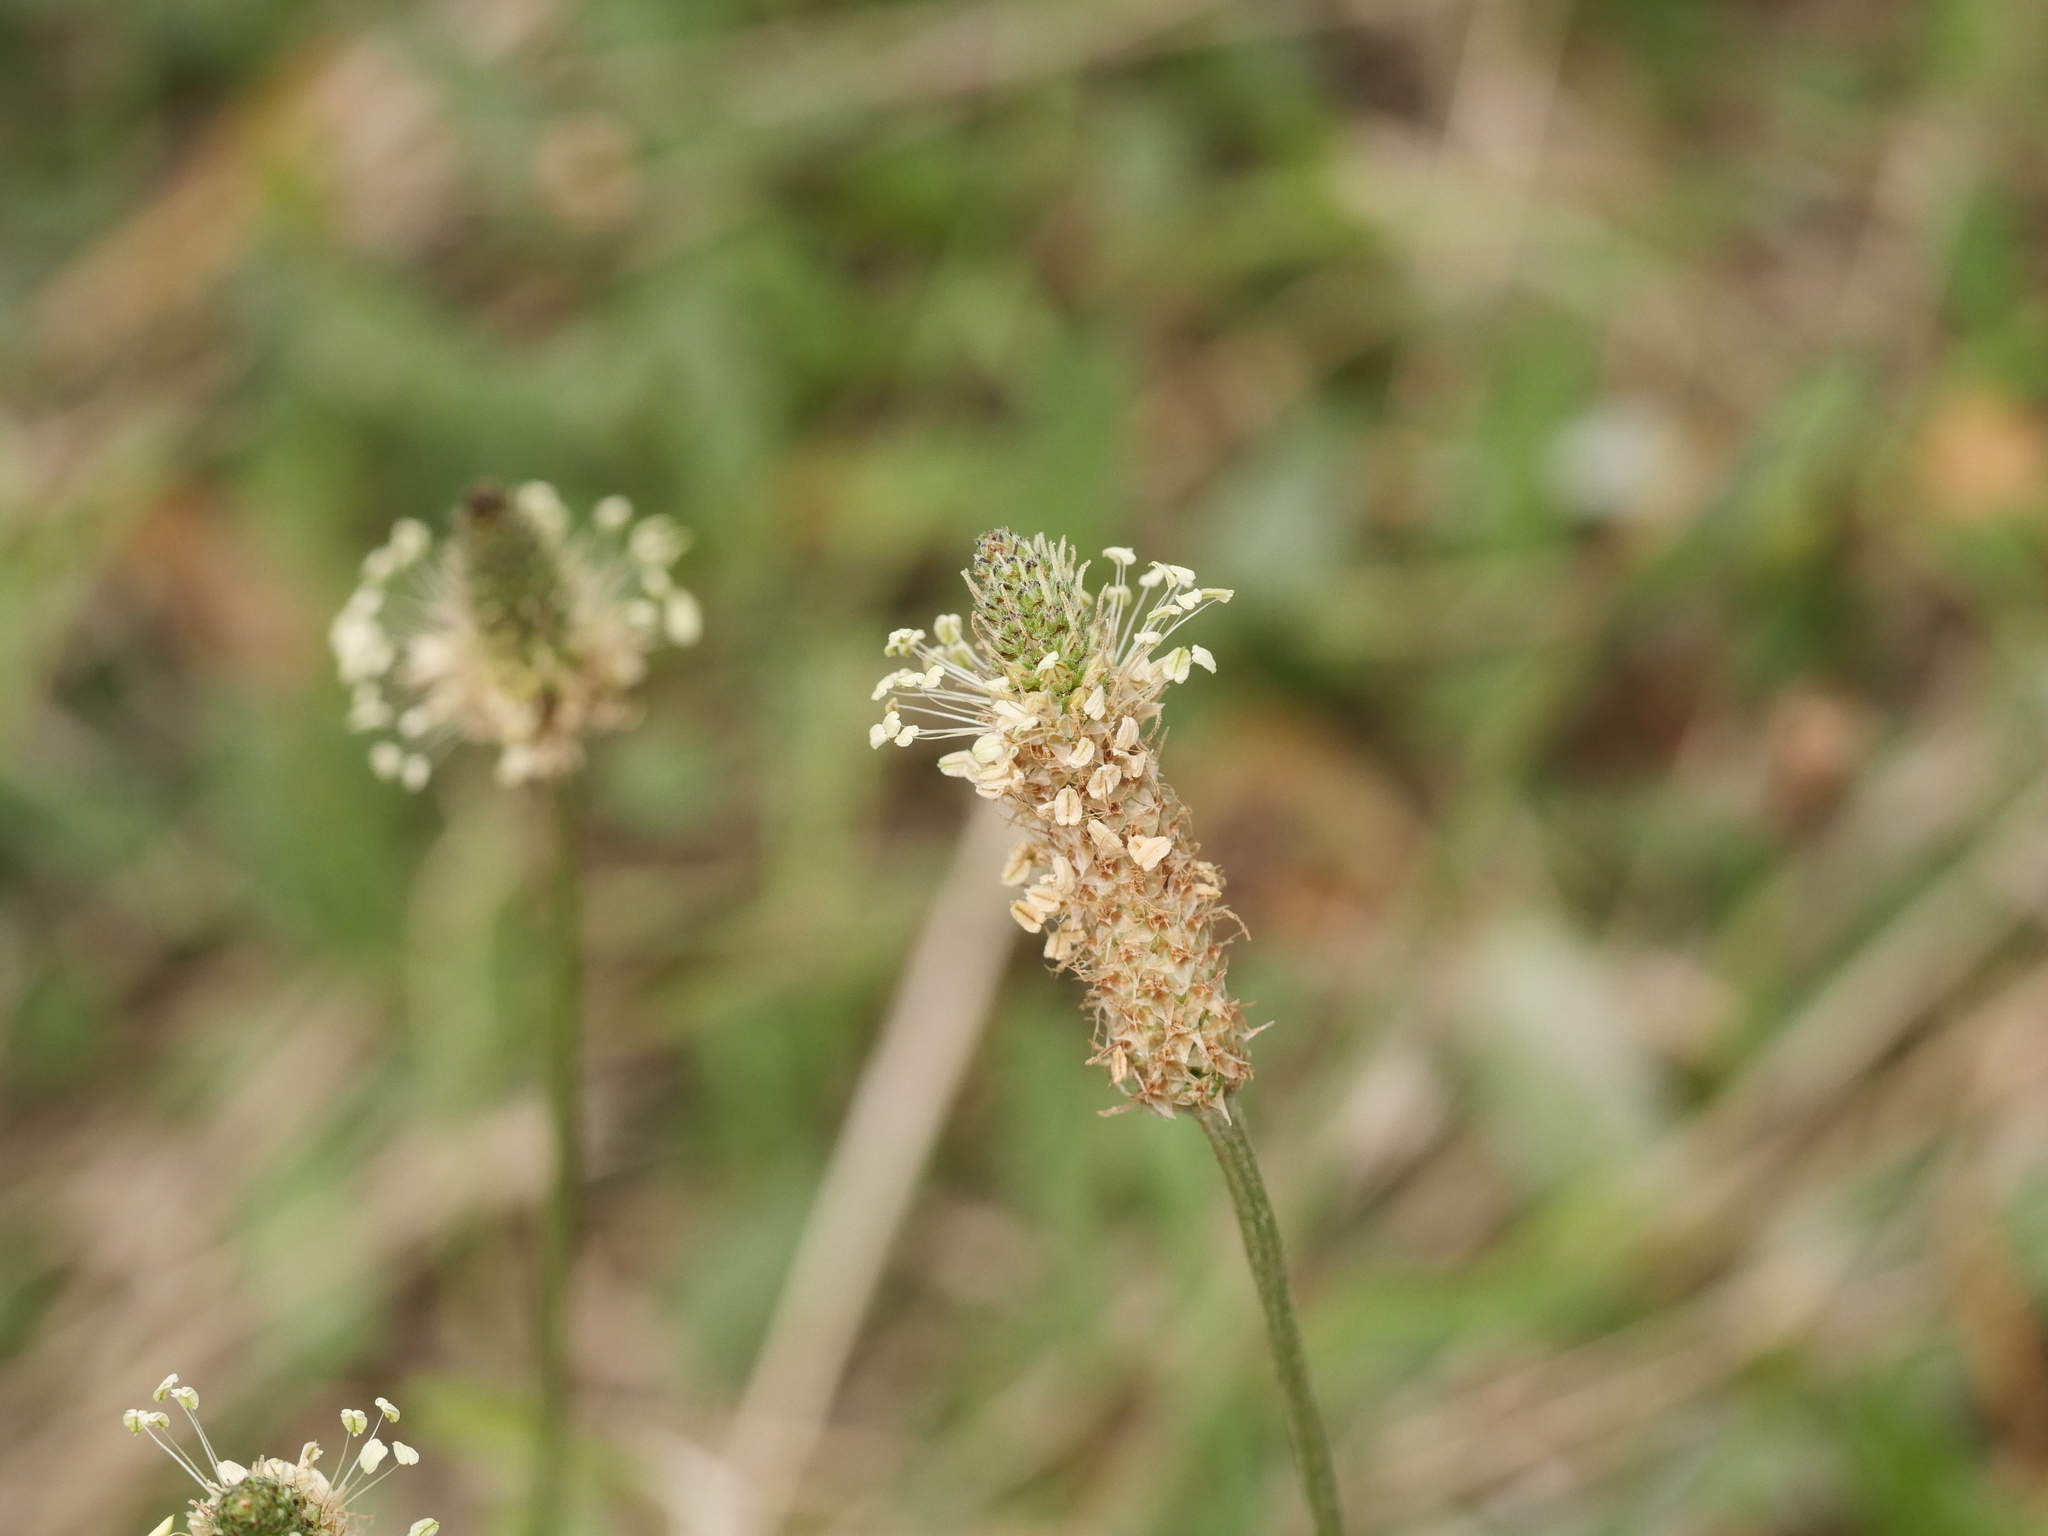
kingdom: Plantae
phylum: Tracheophyta
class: Magnoliopsida
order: Lamiales
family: Plantaginaceae
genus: Plantago
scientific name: Plantago lanceolata
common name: Ribwort plantain
